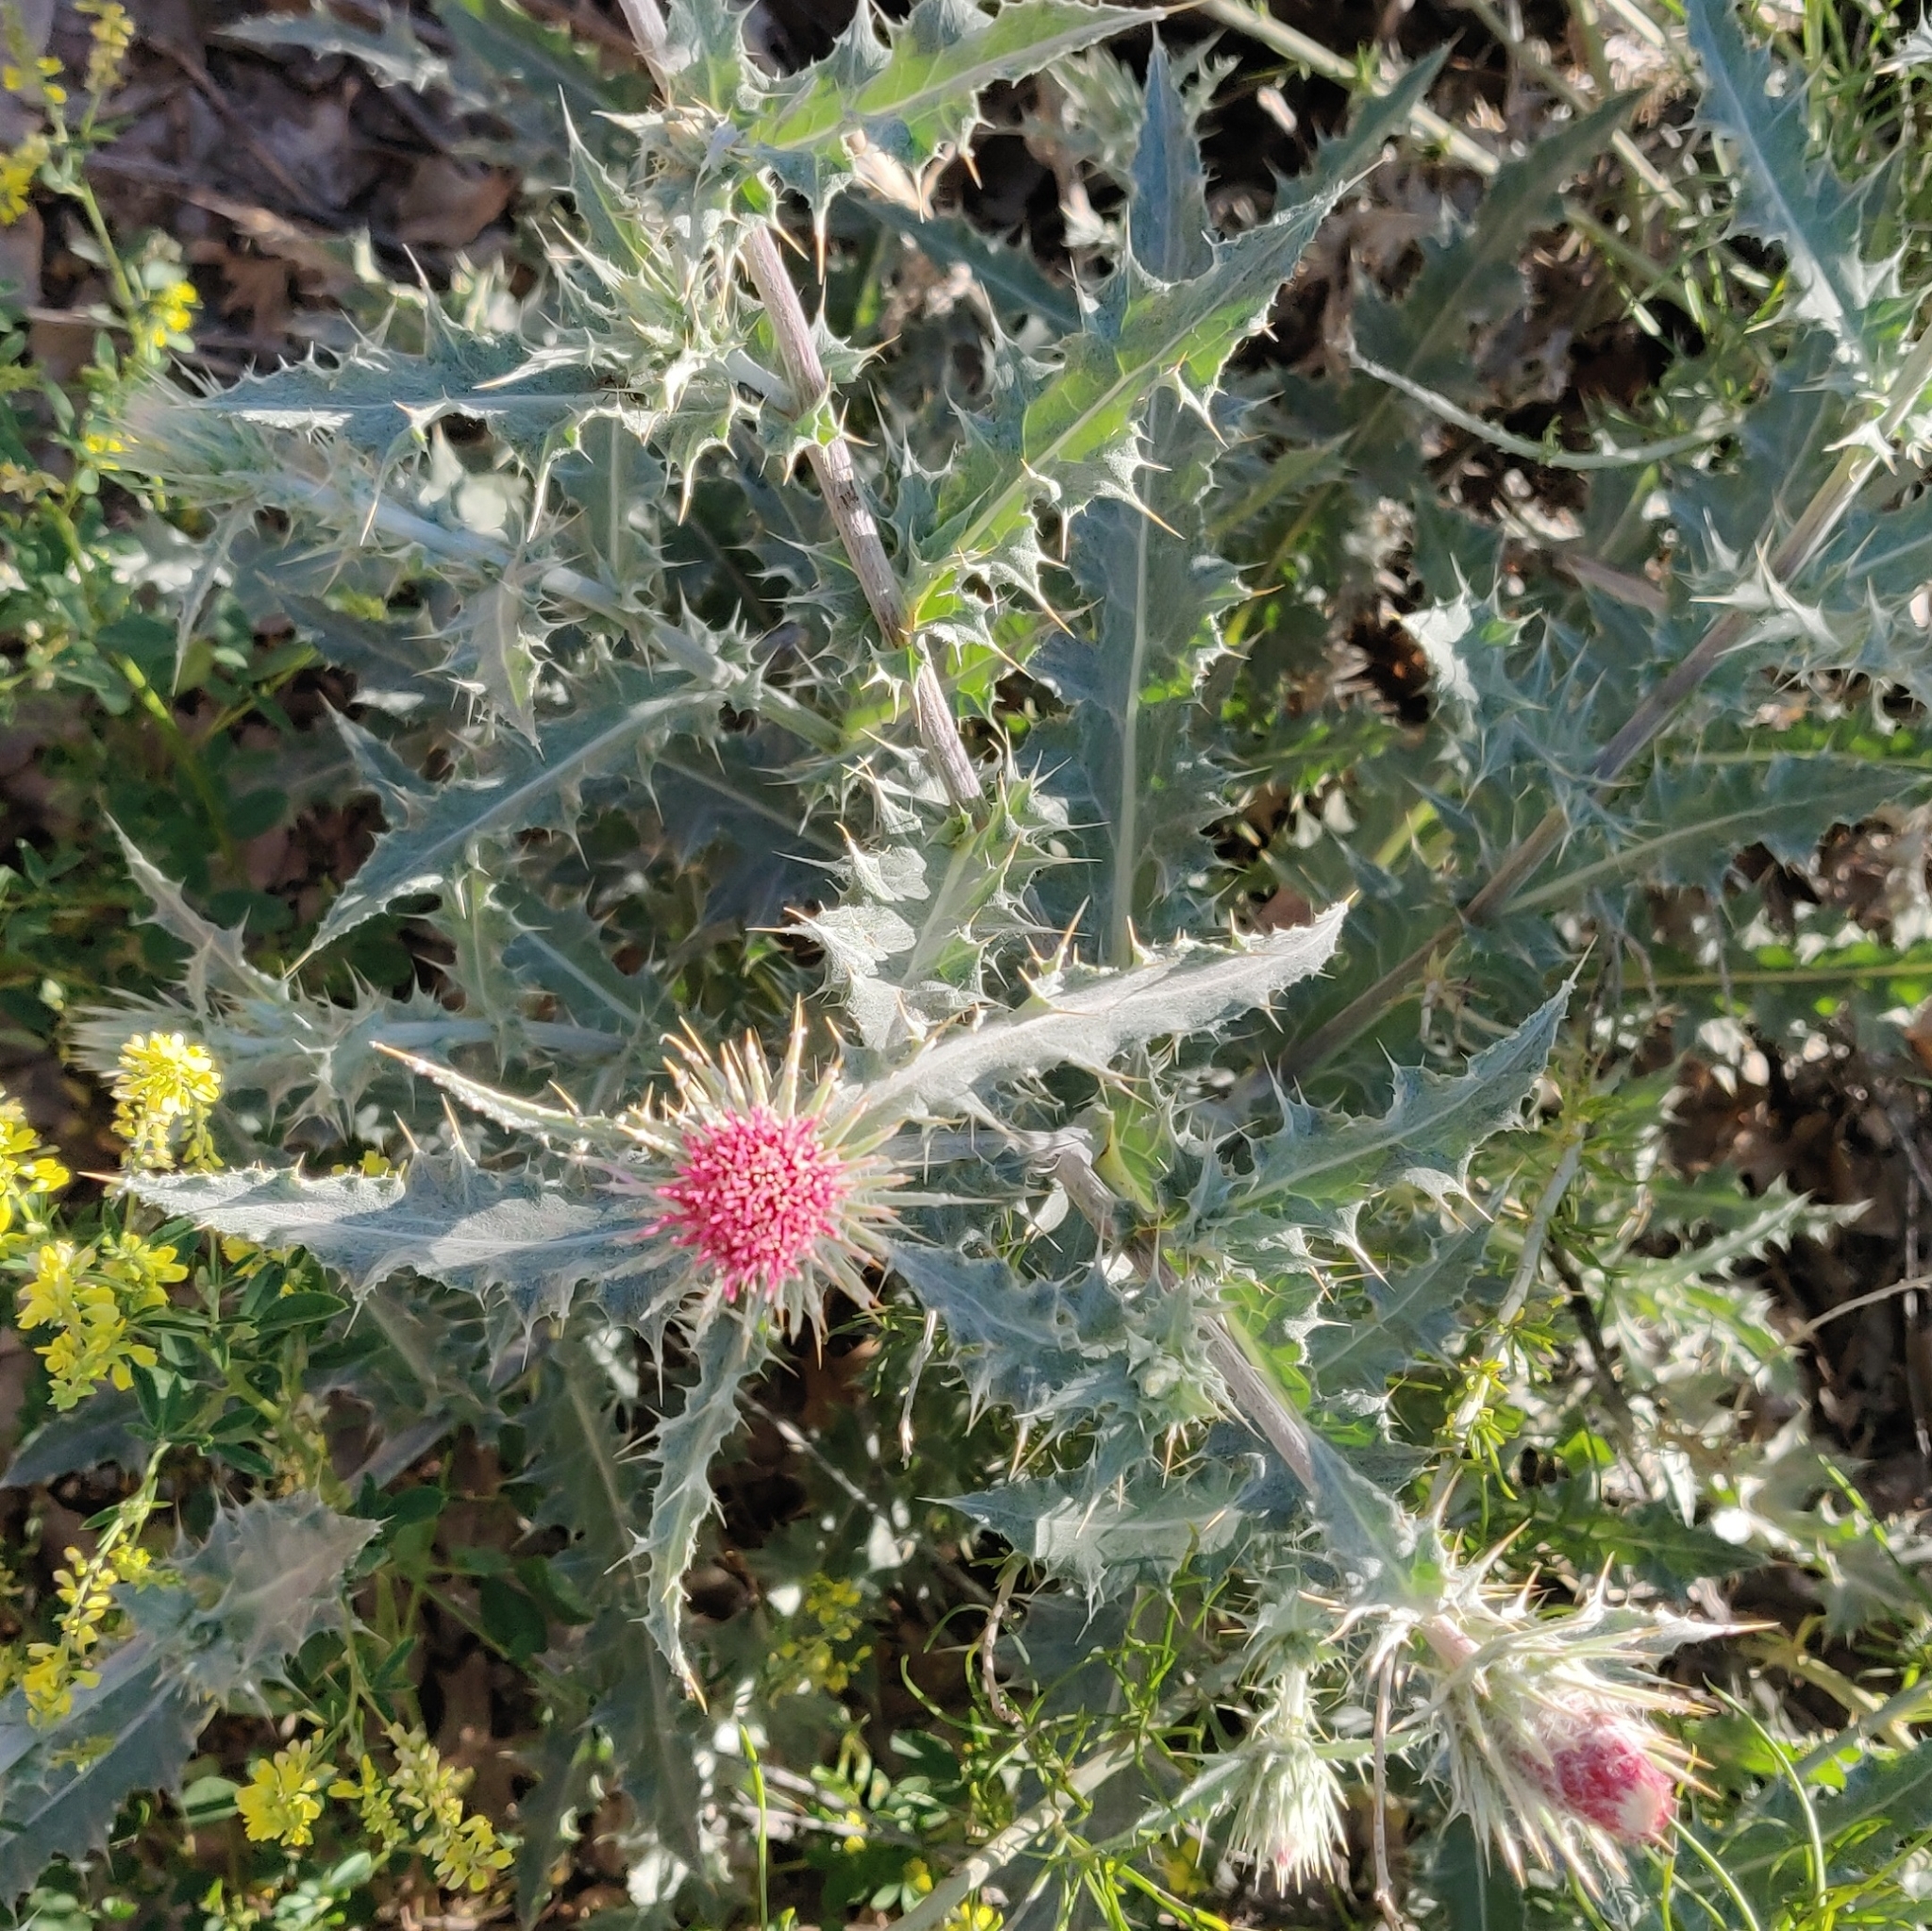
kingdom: Plantae
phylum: Tracheophyta
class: Magnoliopsida
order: Asterales
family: Asteraceae
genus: Cirsium
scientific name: Cirsium arizonicum
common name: Arizona thistle
